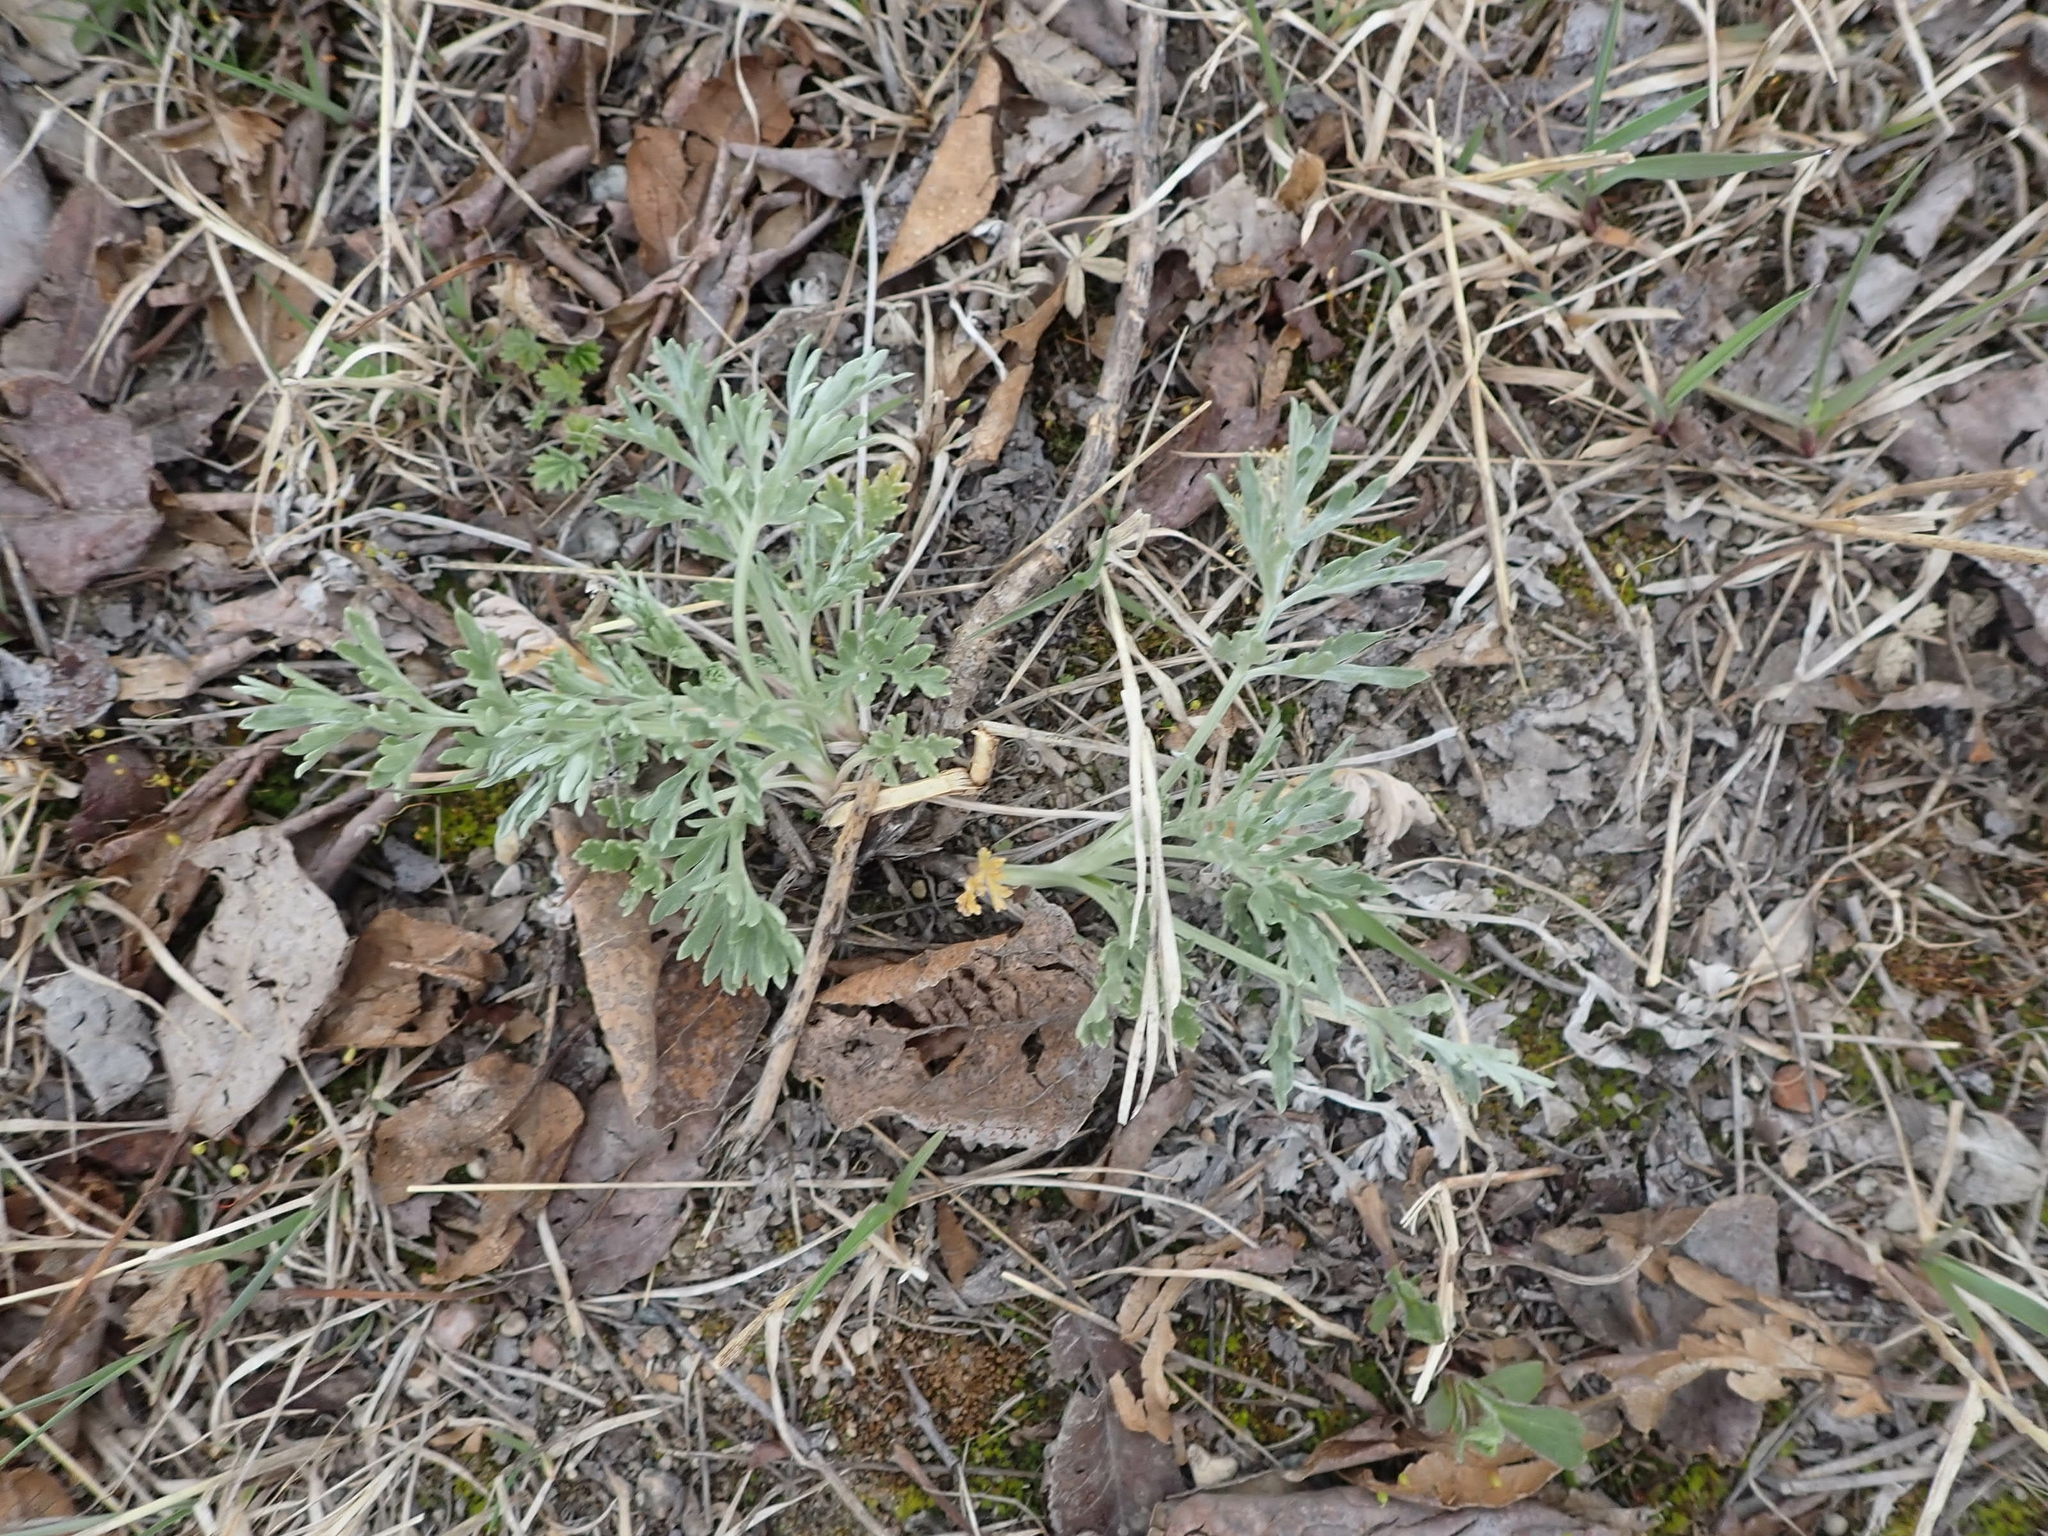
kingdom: Plantae
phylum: Tracheophyta
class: Magnoliopsida
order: Asterales
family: Asteraceae
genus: Artemisia
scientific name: Artemisia absinthium
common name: Wormwood
